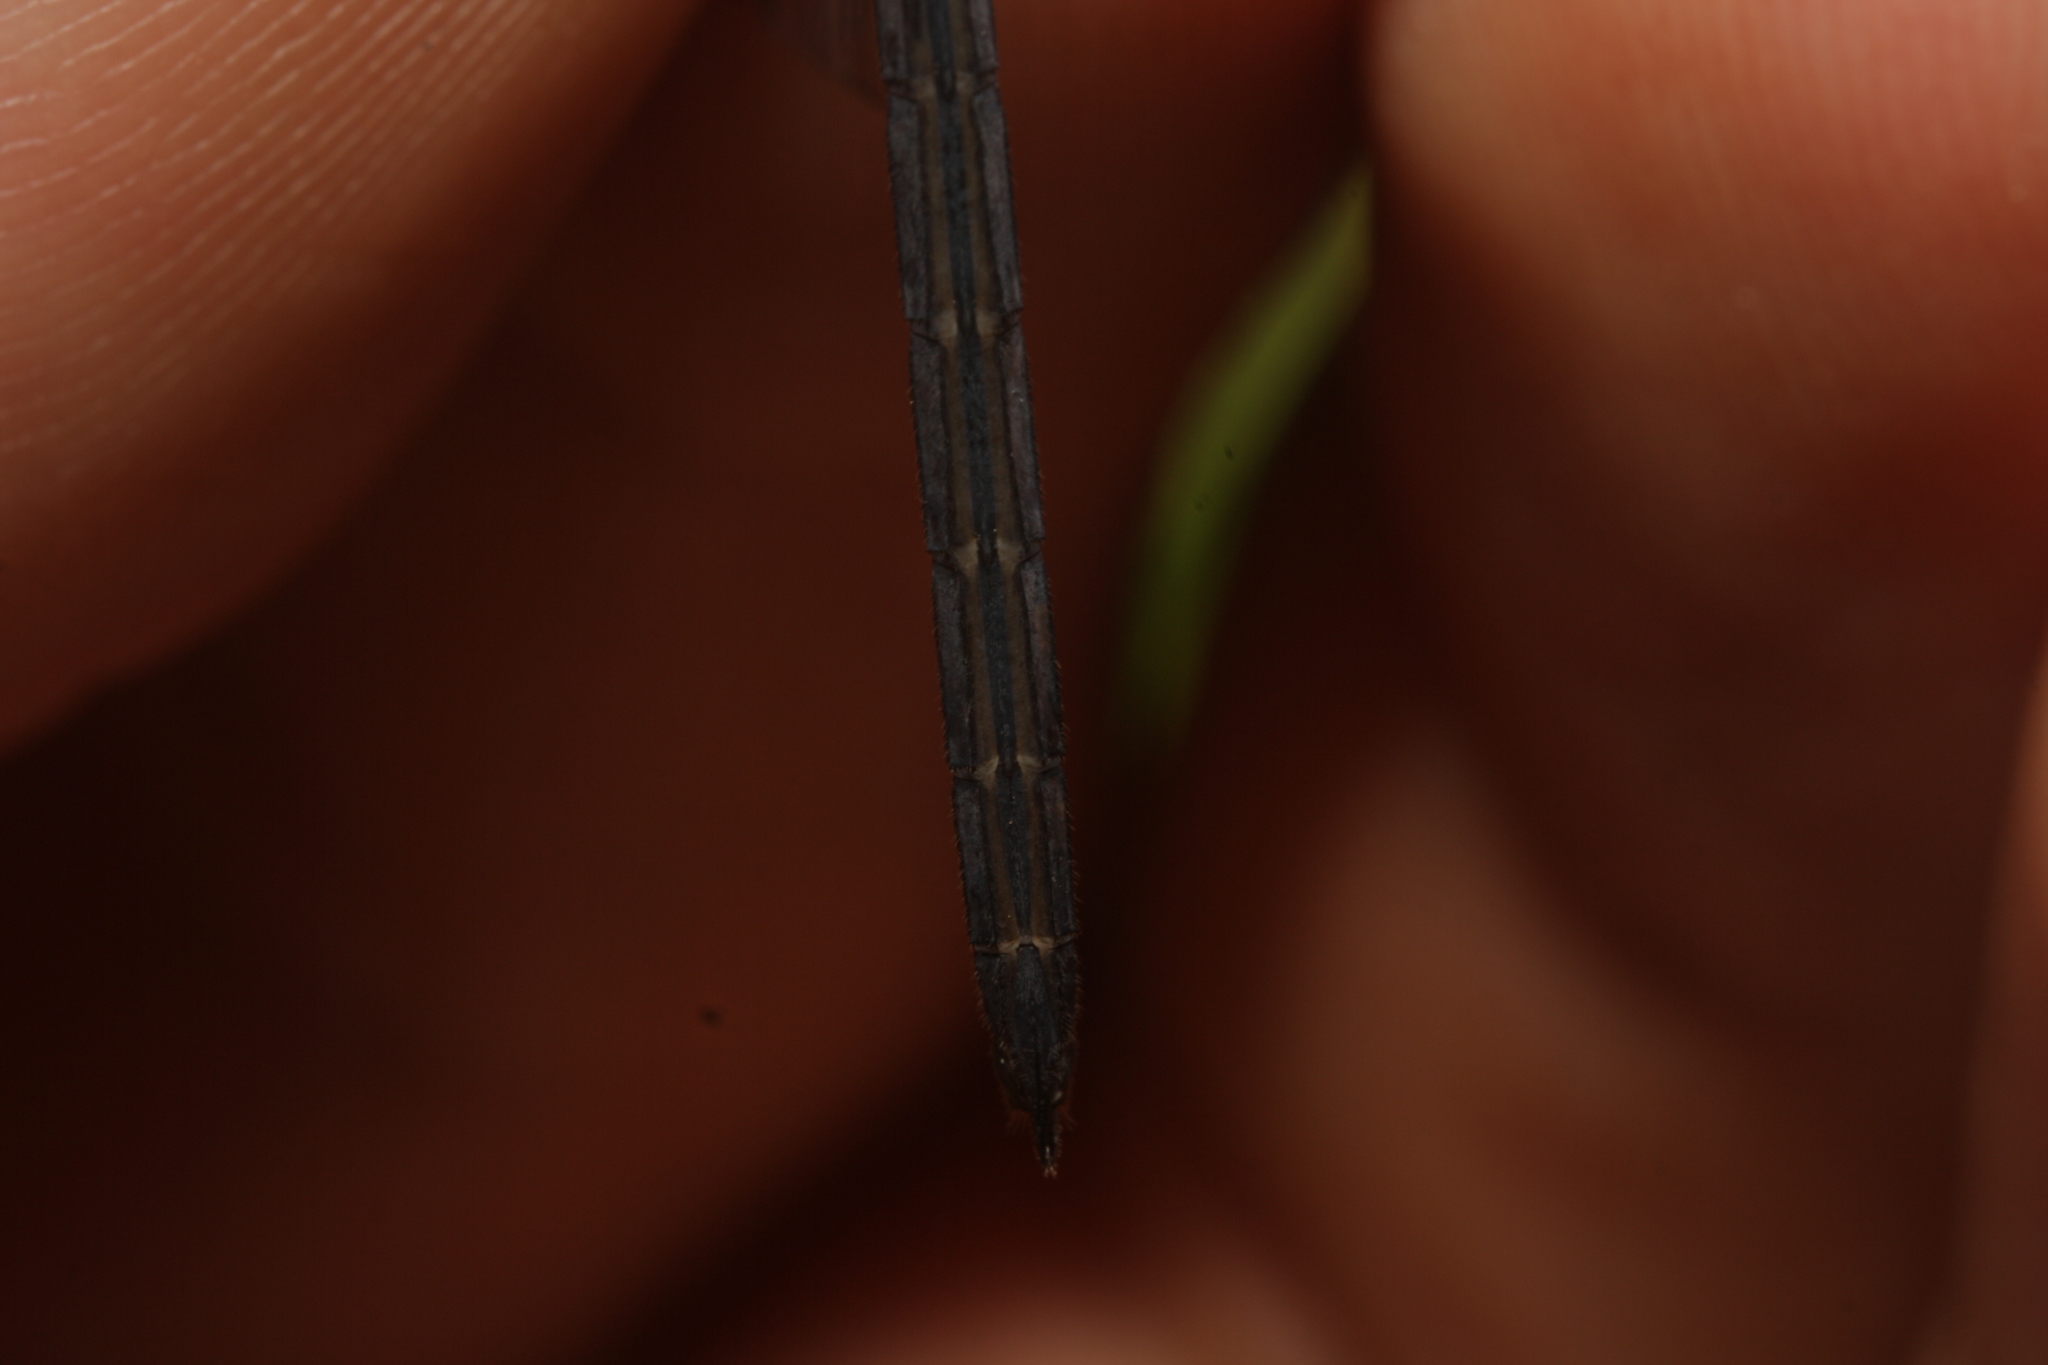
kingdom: Animalia
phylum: Arthropoda
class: Insecta
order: Odonata
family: Libellulidae
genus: Uracis
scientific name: Uracis imbuta
